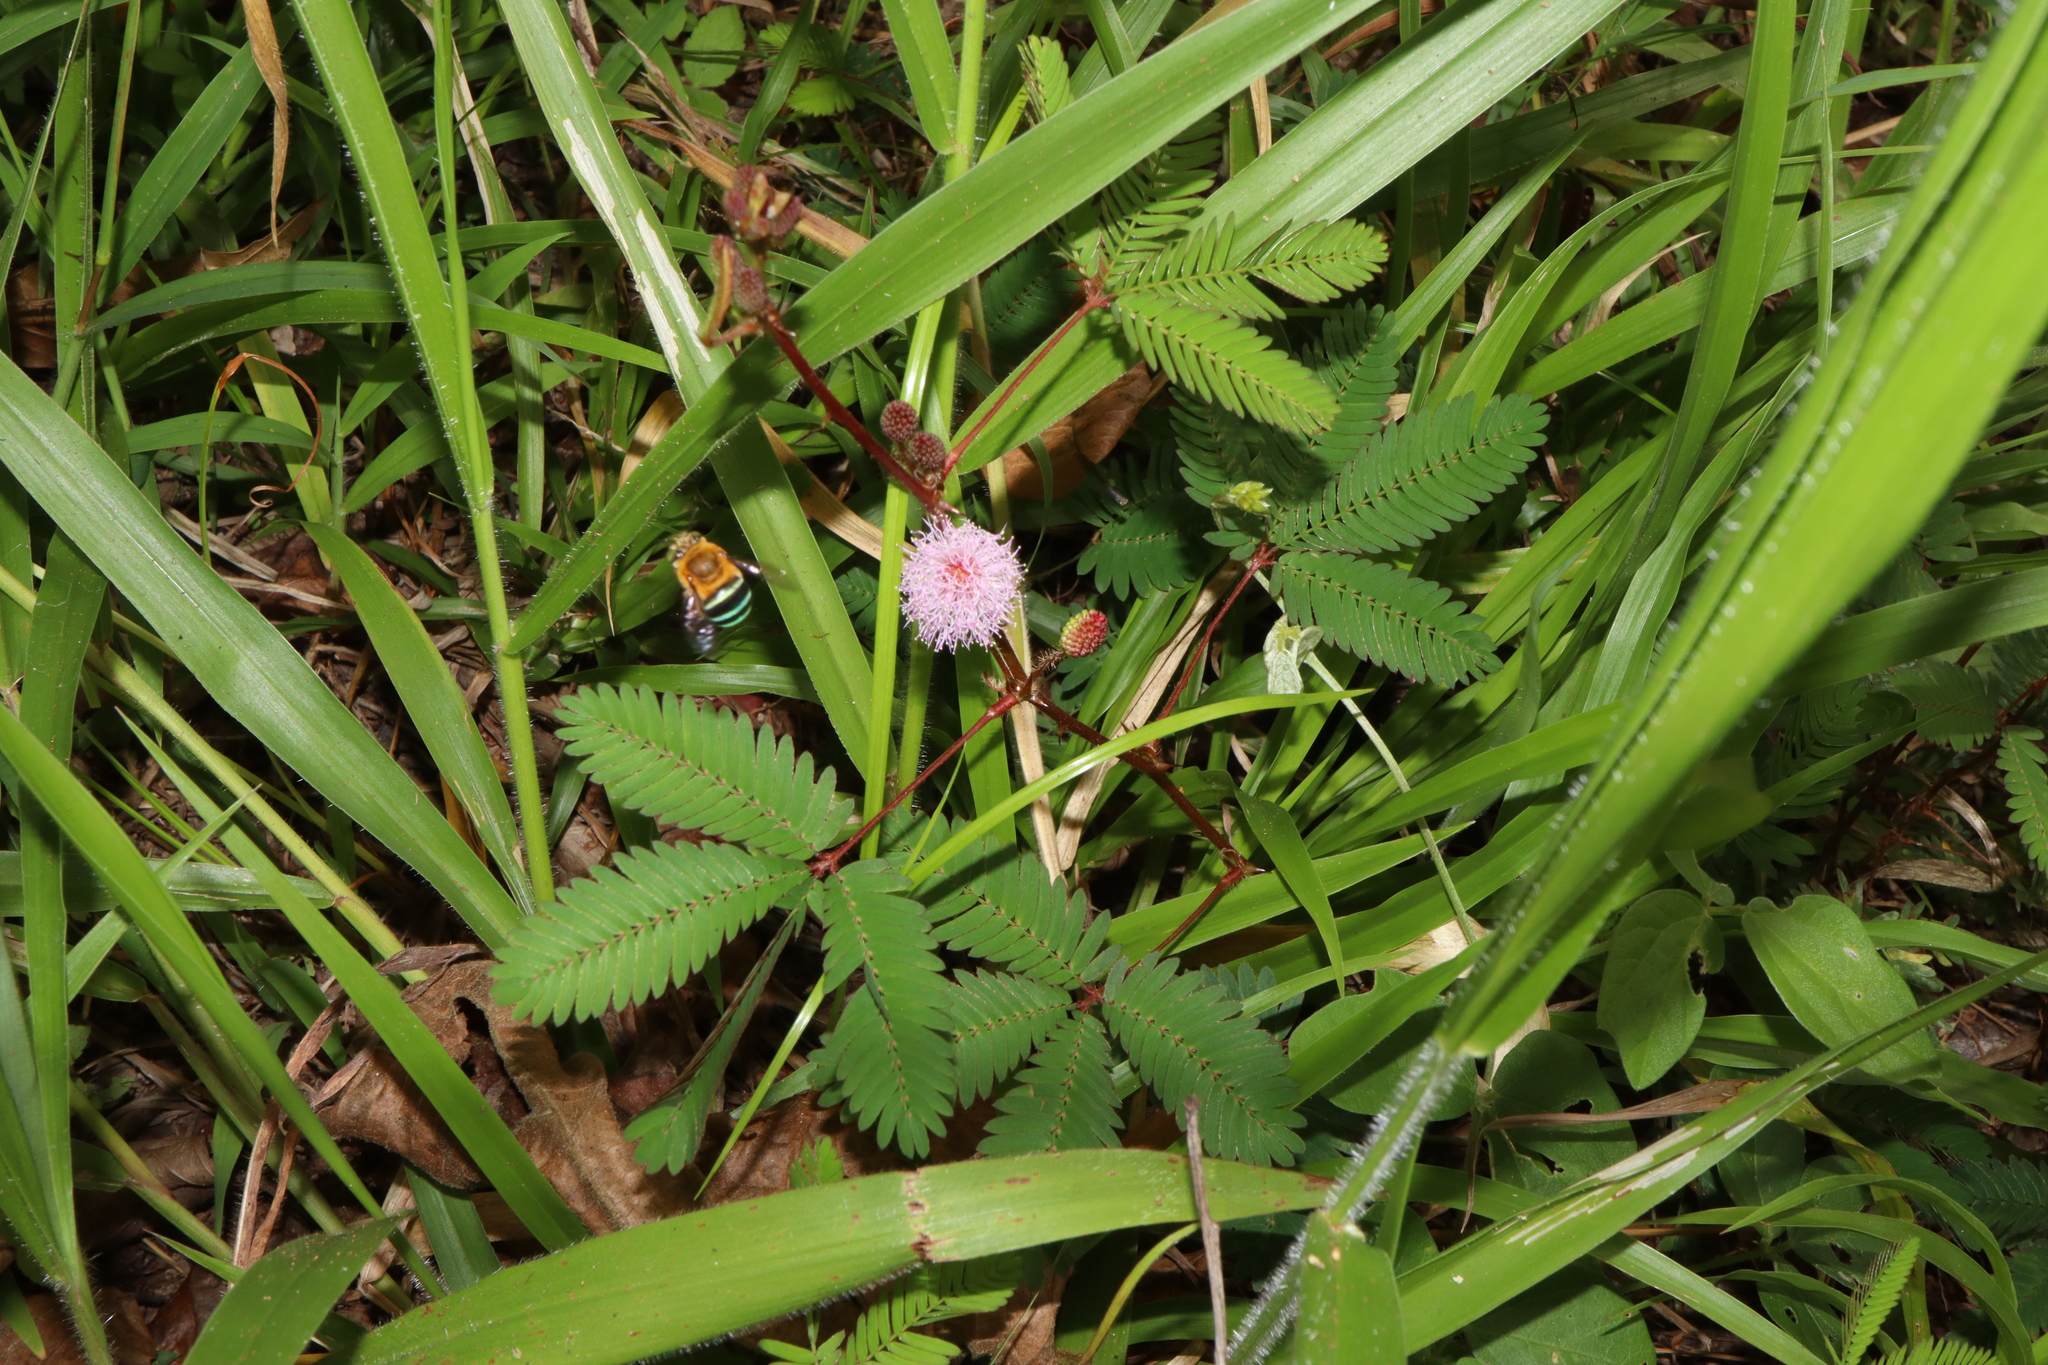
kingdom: Animalia
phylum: Arthropoda
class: Insecta
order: Hymenoptera
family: Apidae
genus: Amegilla
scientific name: Amegilla cingulata
